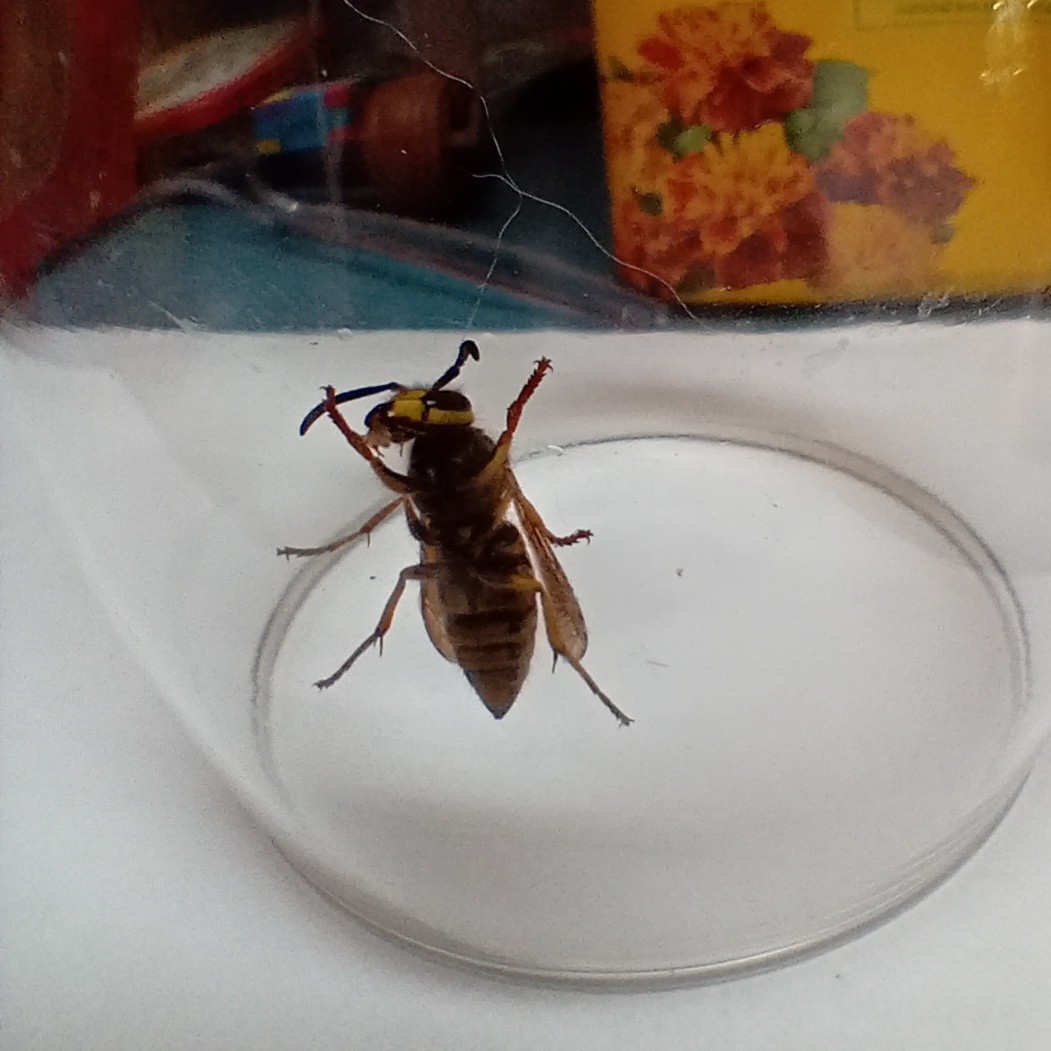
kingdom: Animalia
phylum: Arthropoda
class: Insecta
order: Hymenoptera
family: Vespidae
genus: Vespula
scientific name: Vespula maculifrons
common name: Eastern yellowjacket
